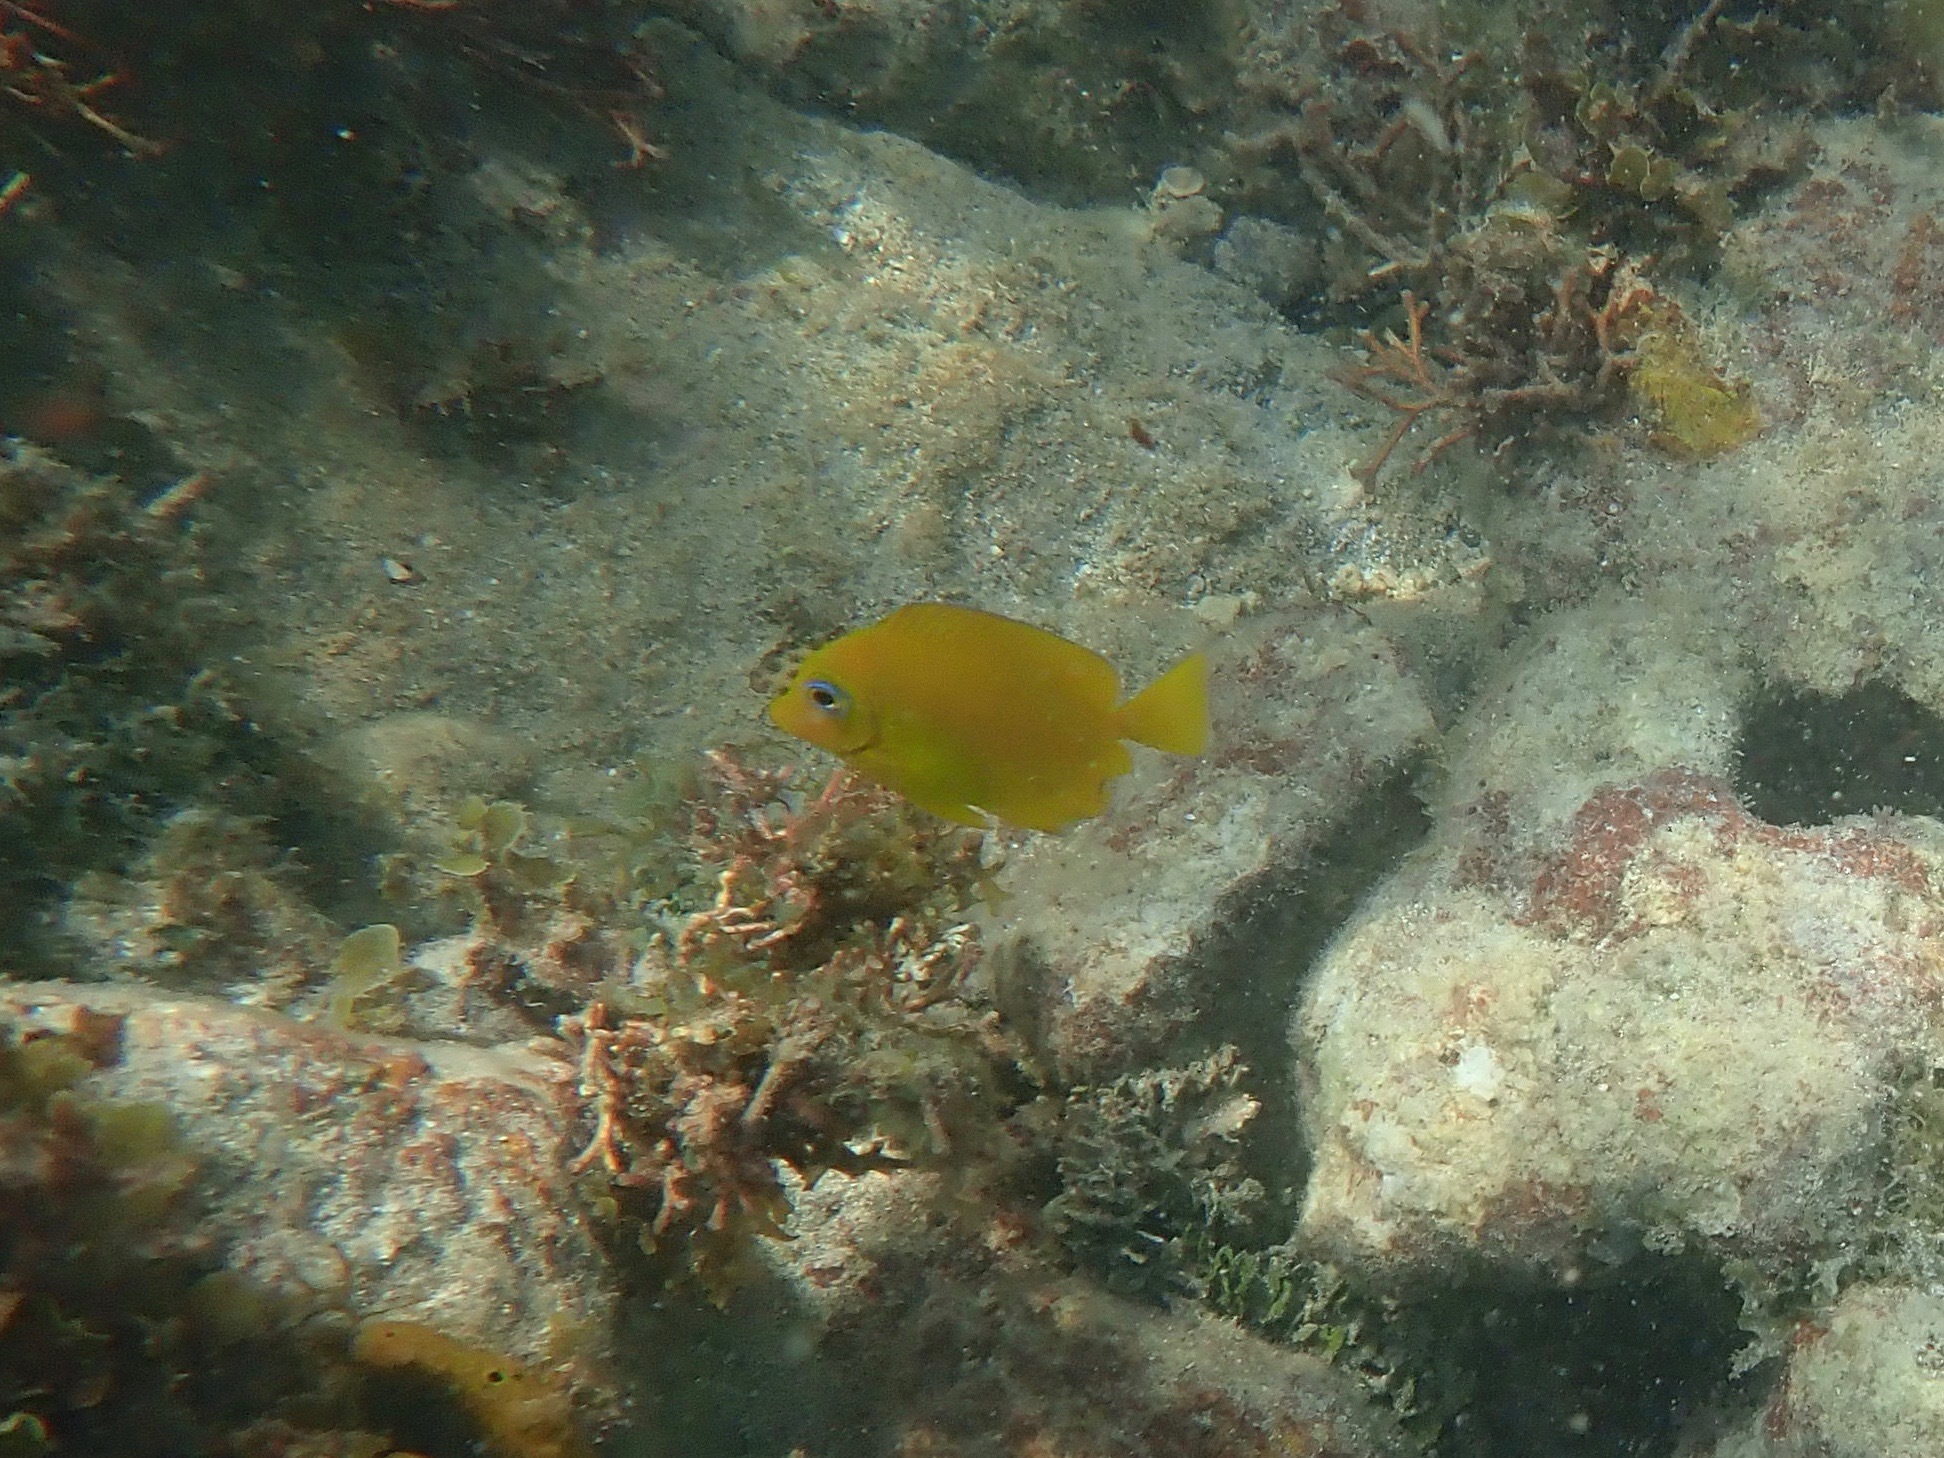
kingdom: Animalia
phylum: Chordata
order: Perciformes
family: Acanthuridae
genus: Acanthurus
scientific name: Acanthurus coeruleus
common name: Blue tang
